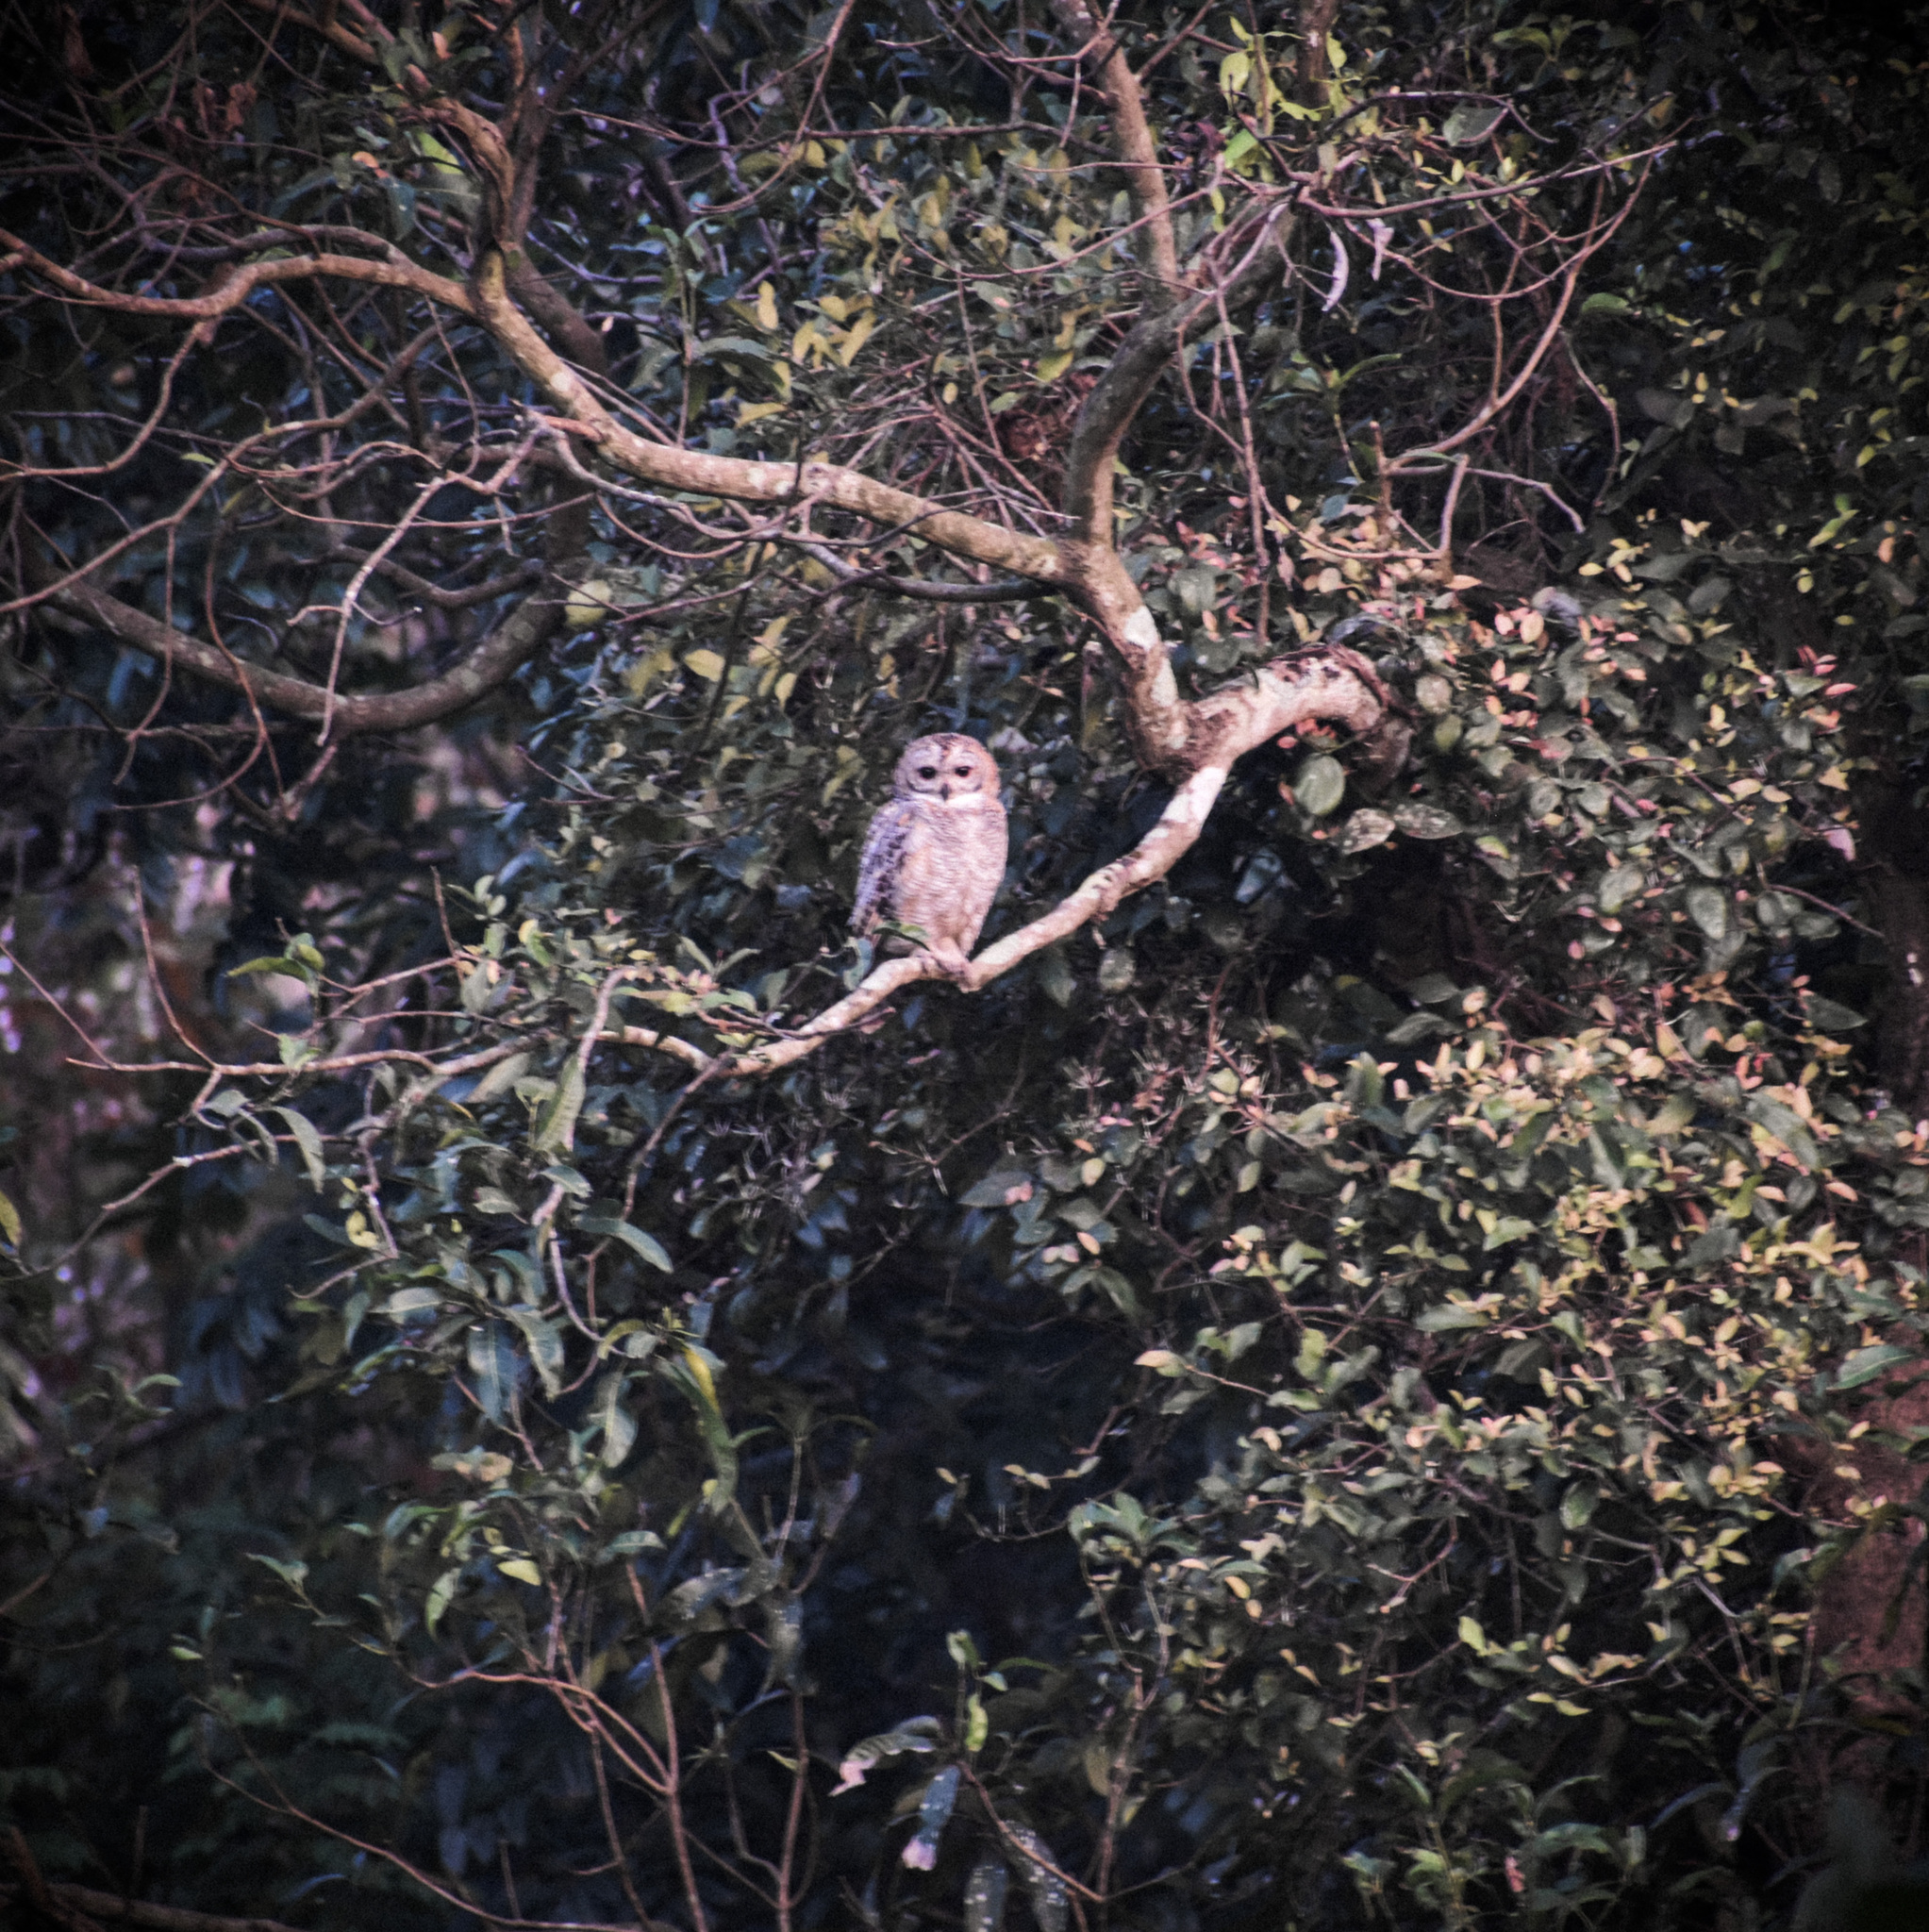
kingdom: Animalia
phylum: Chordata
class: Aves
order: Strigiformes
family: Strigidae
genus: Strix
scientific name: Strix ocellata
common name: Mottled wood owl
